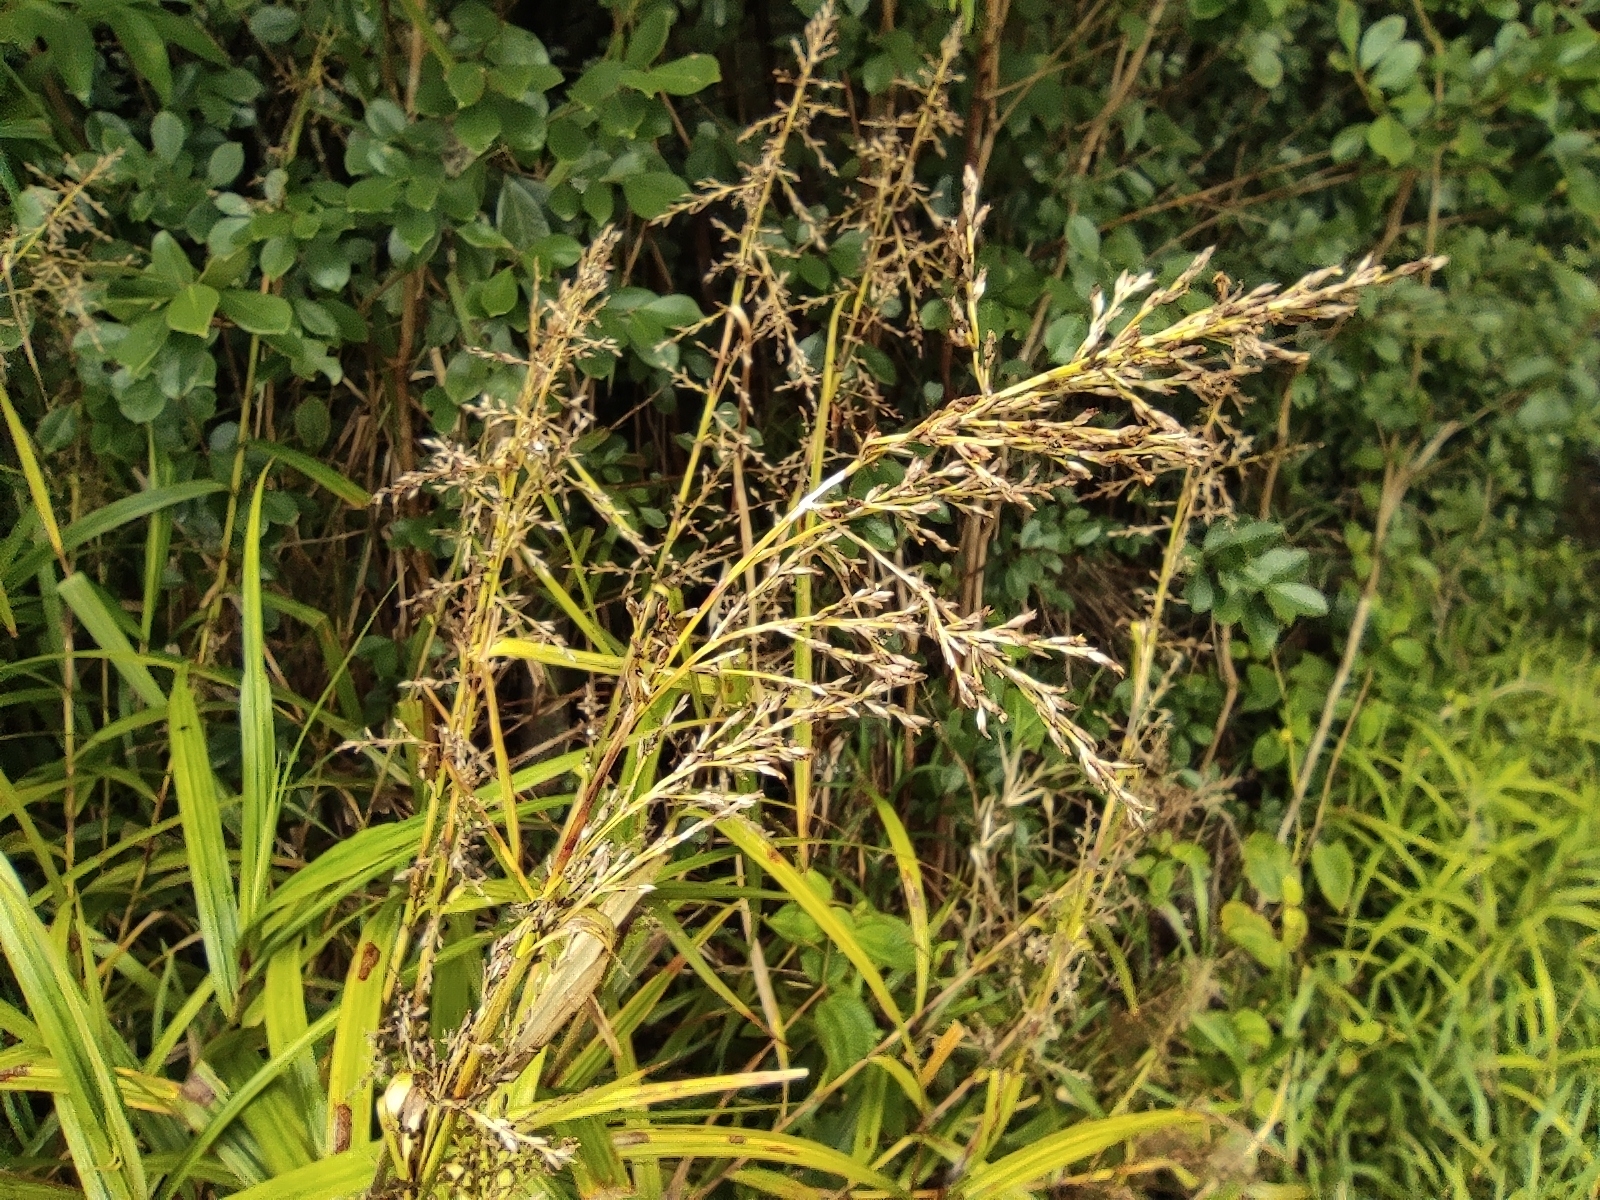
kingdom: Plantae
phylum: Tracheophyta
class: Liliopsida
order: Poales
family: Cyperaceae
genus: Scleria
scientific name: Scleria gaertneri
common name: Cortadera blanca
